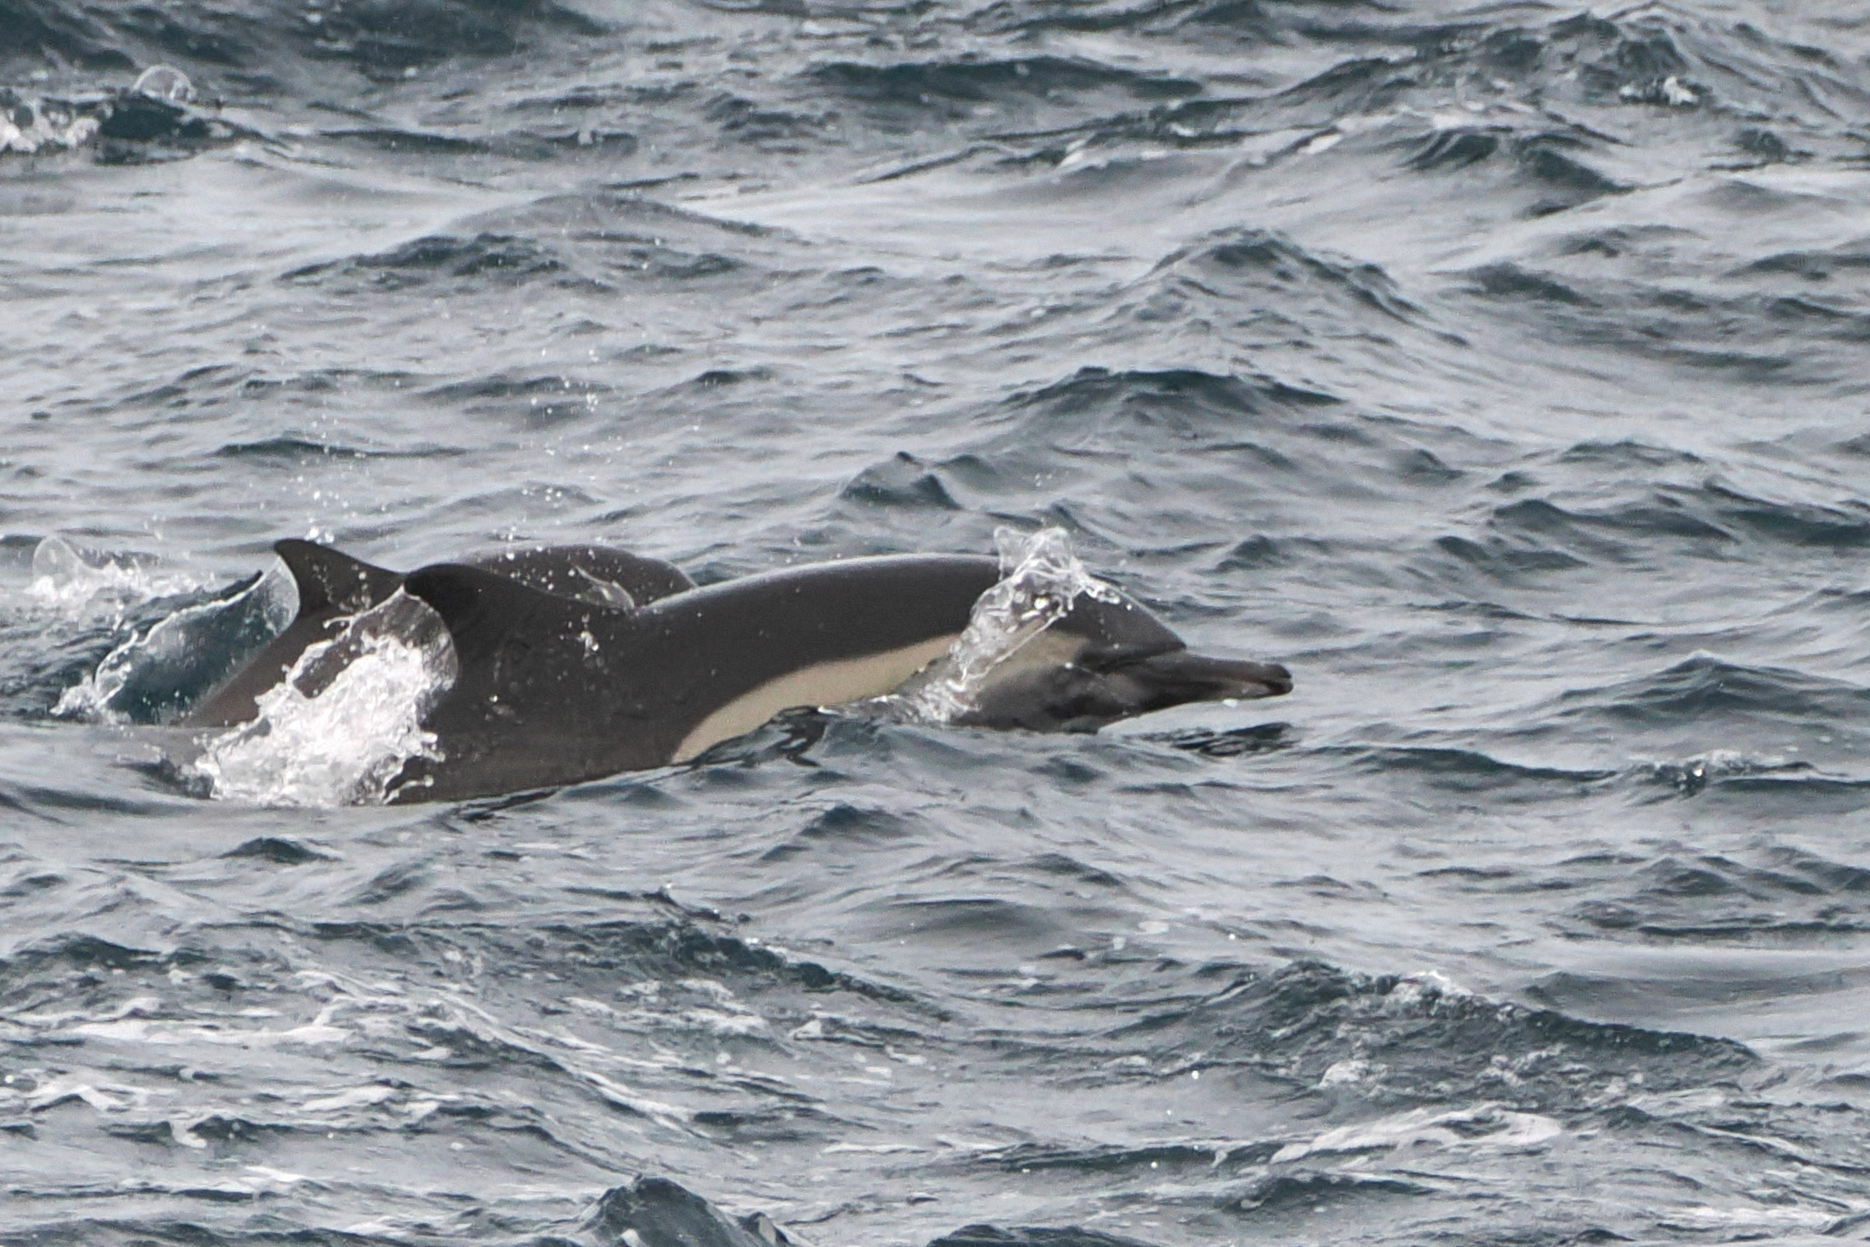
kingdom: Animalia
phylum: Chordata
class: Mammalia
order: Cetacea
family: Delphinidae
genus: Delphinus
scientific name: Delphinus delphis
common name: Common dolphin
